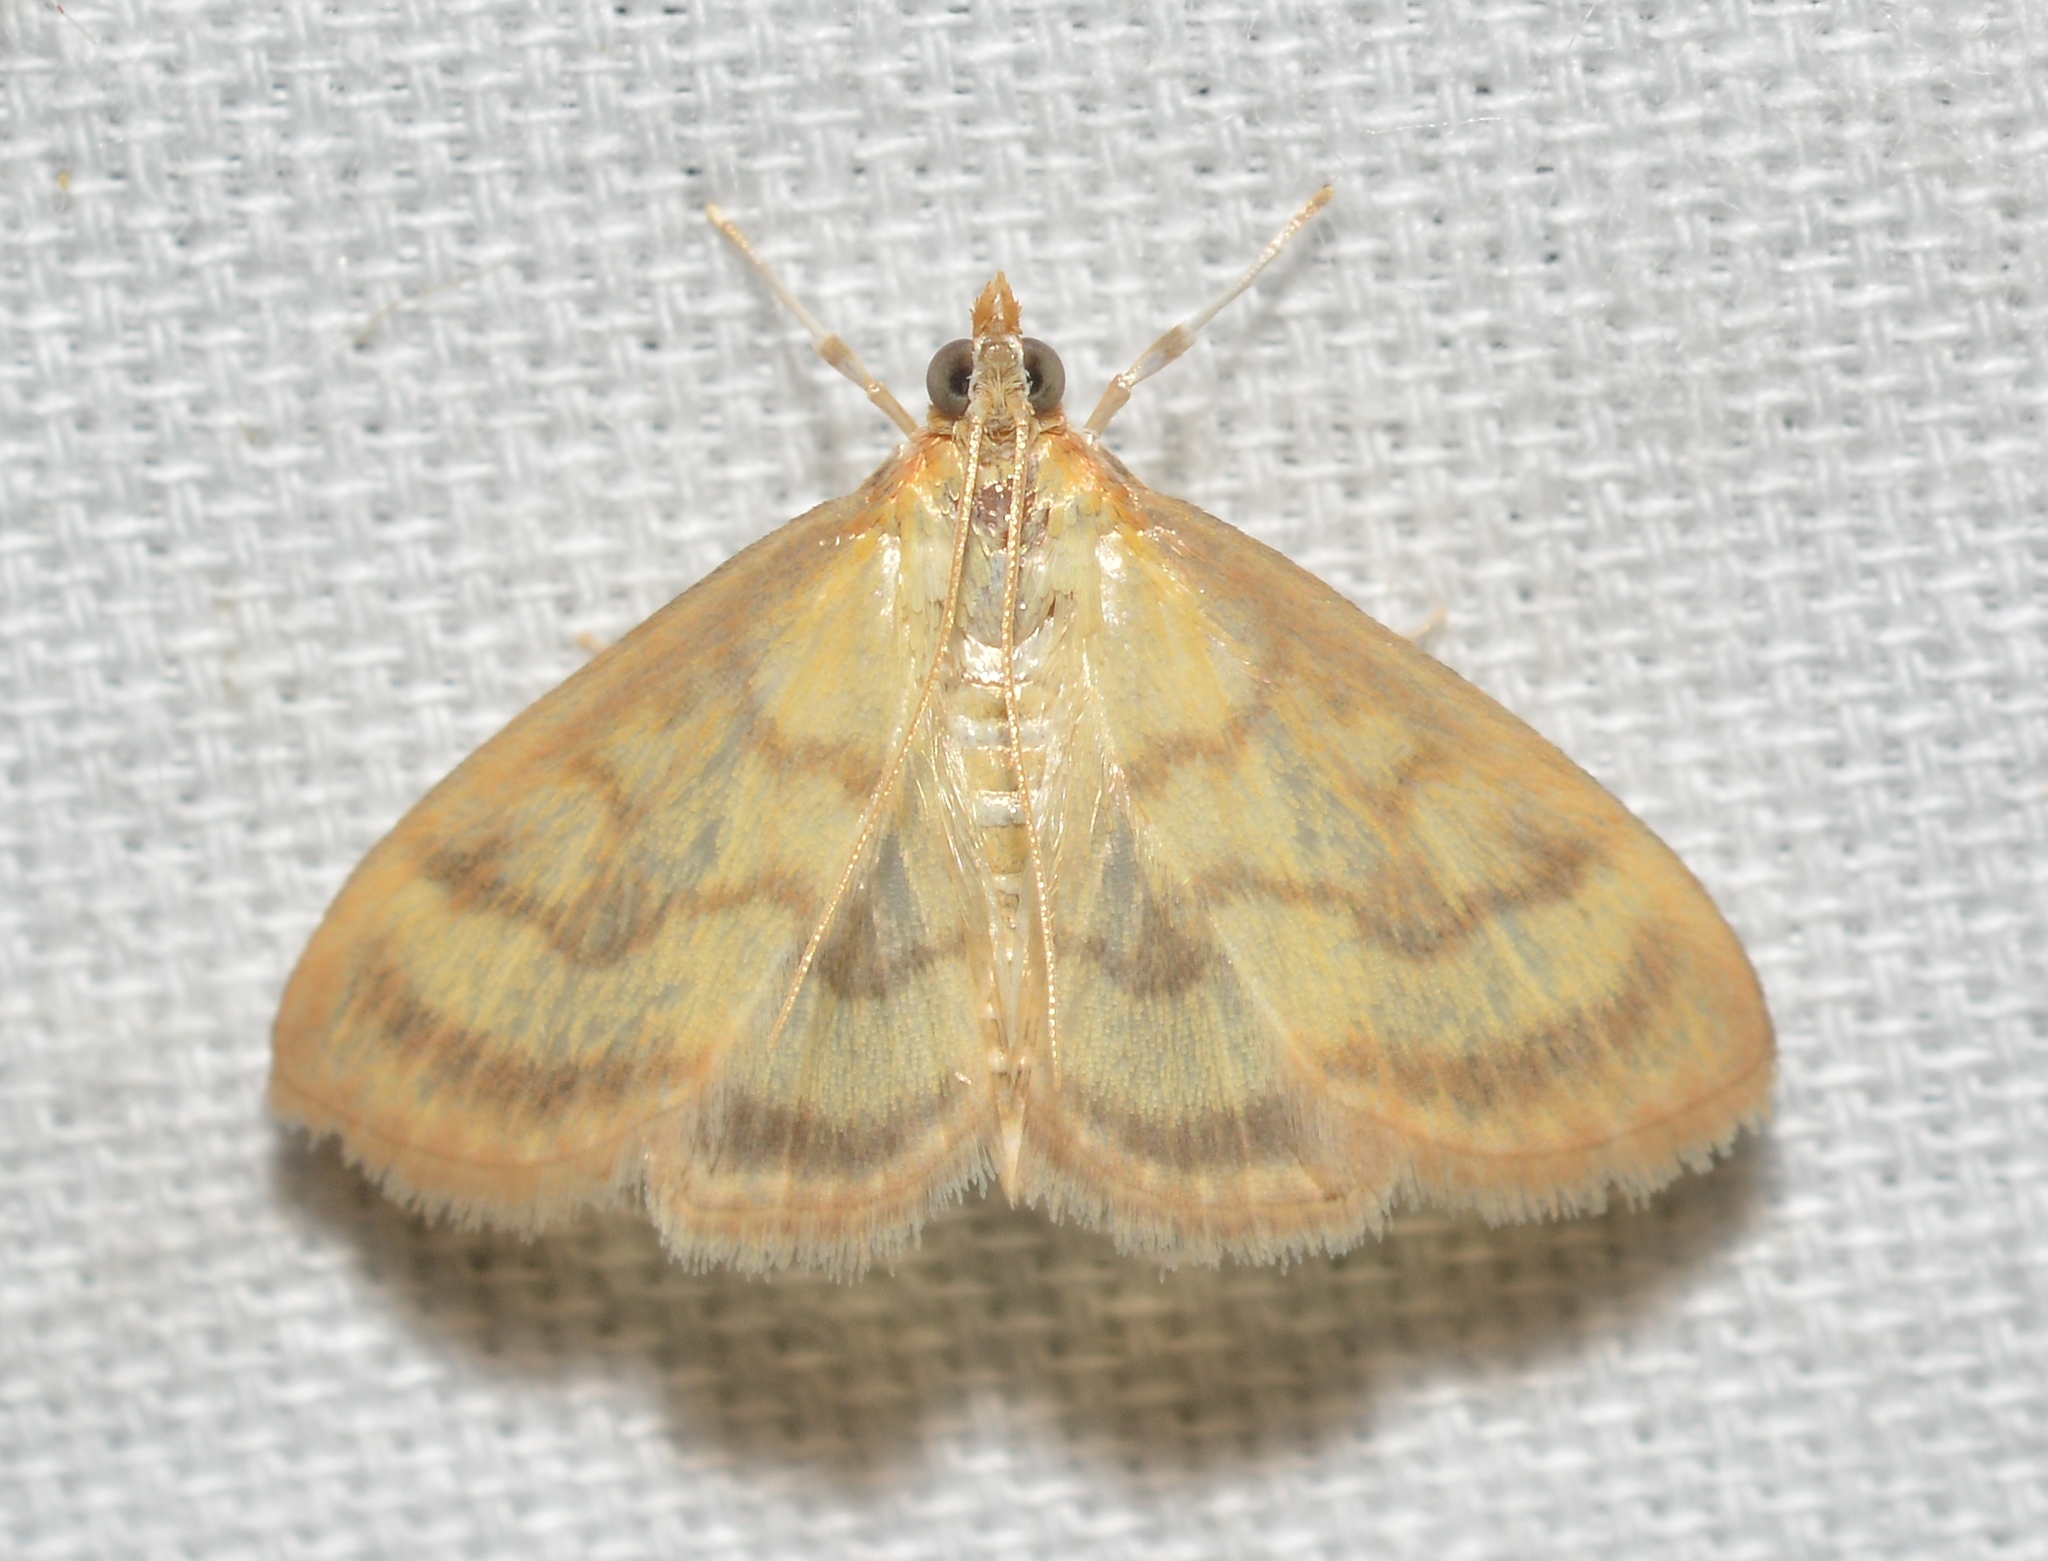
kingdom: Animalia
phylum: Arthropoda
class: Insecta
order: Lepidoptera
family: Crambidae
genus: Crocidophora
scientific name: Crocidophora tuberculalis
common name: Pale-winged crocidiphora moth
